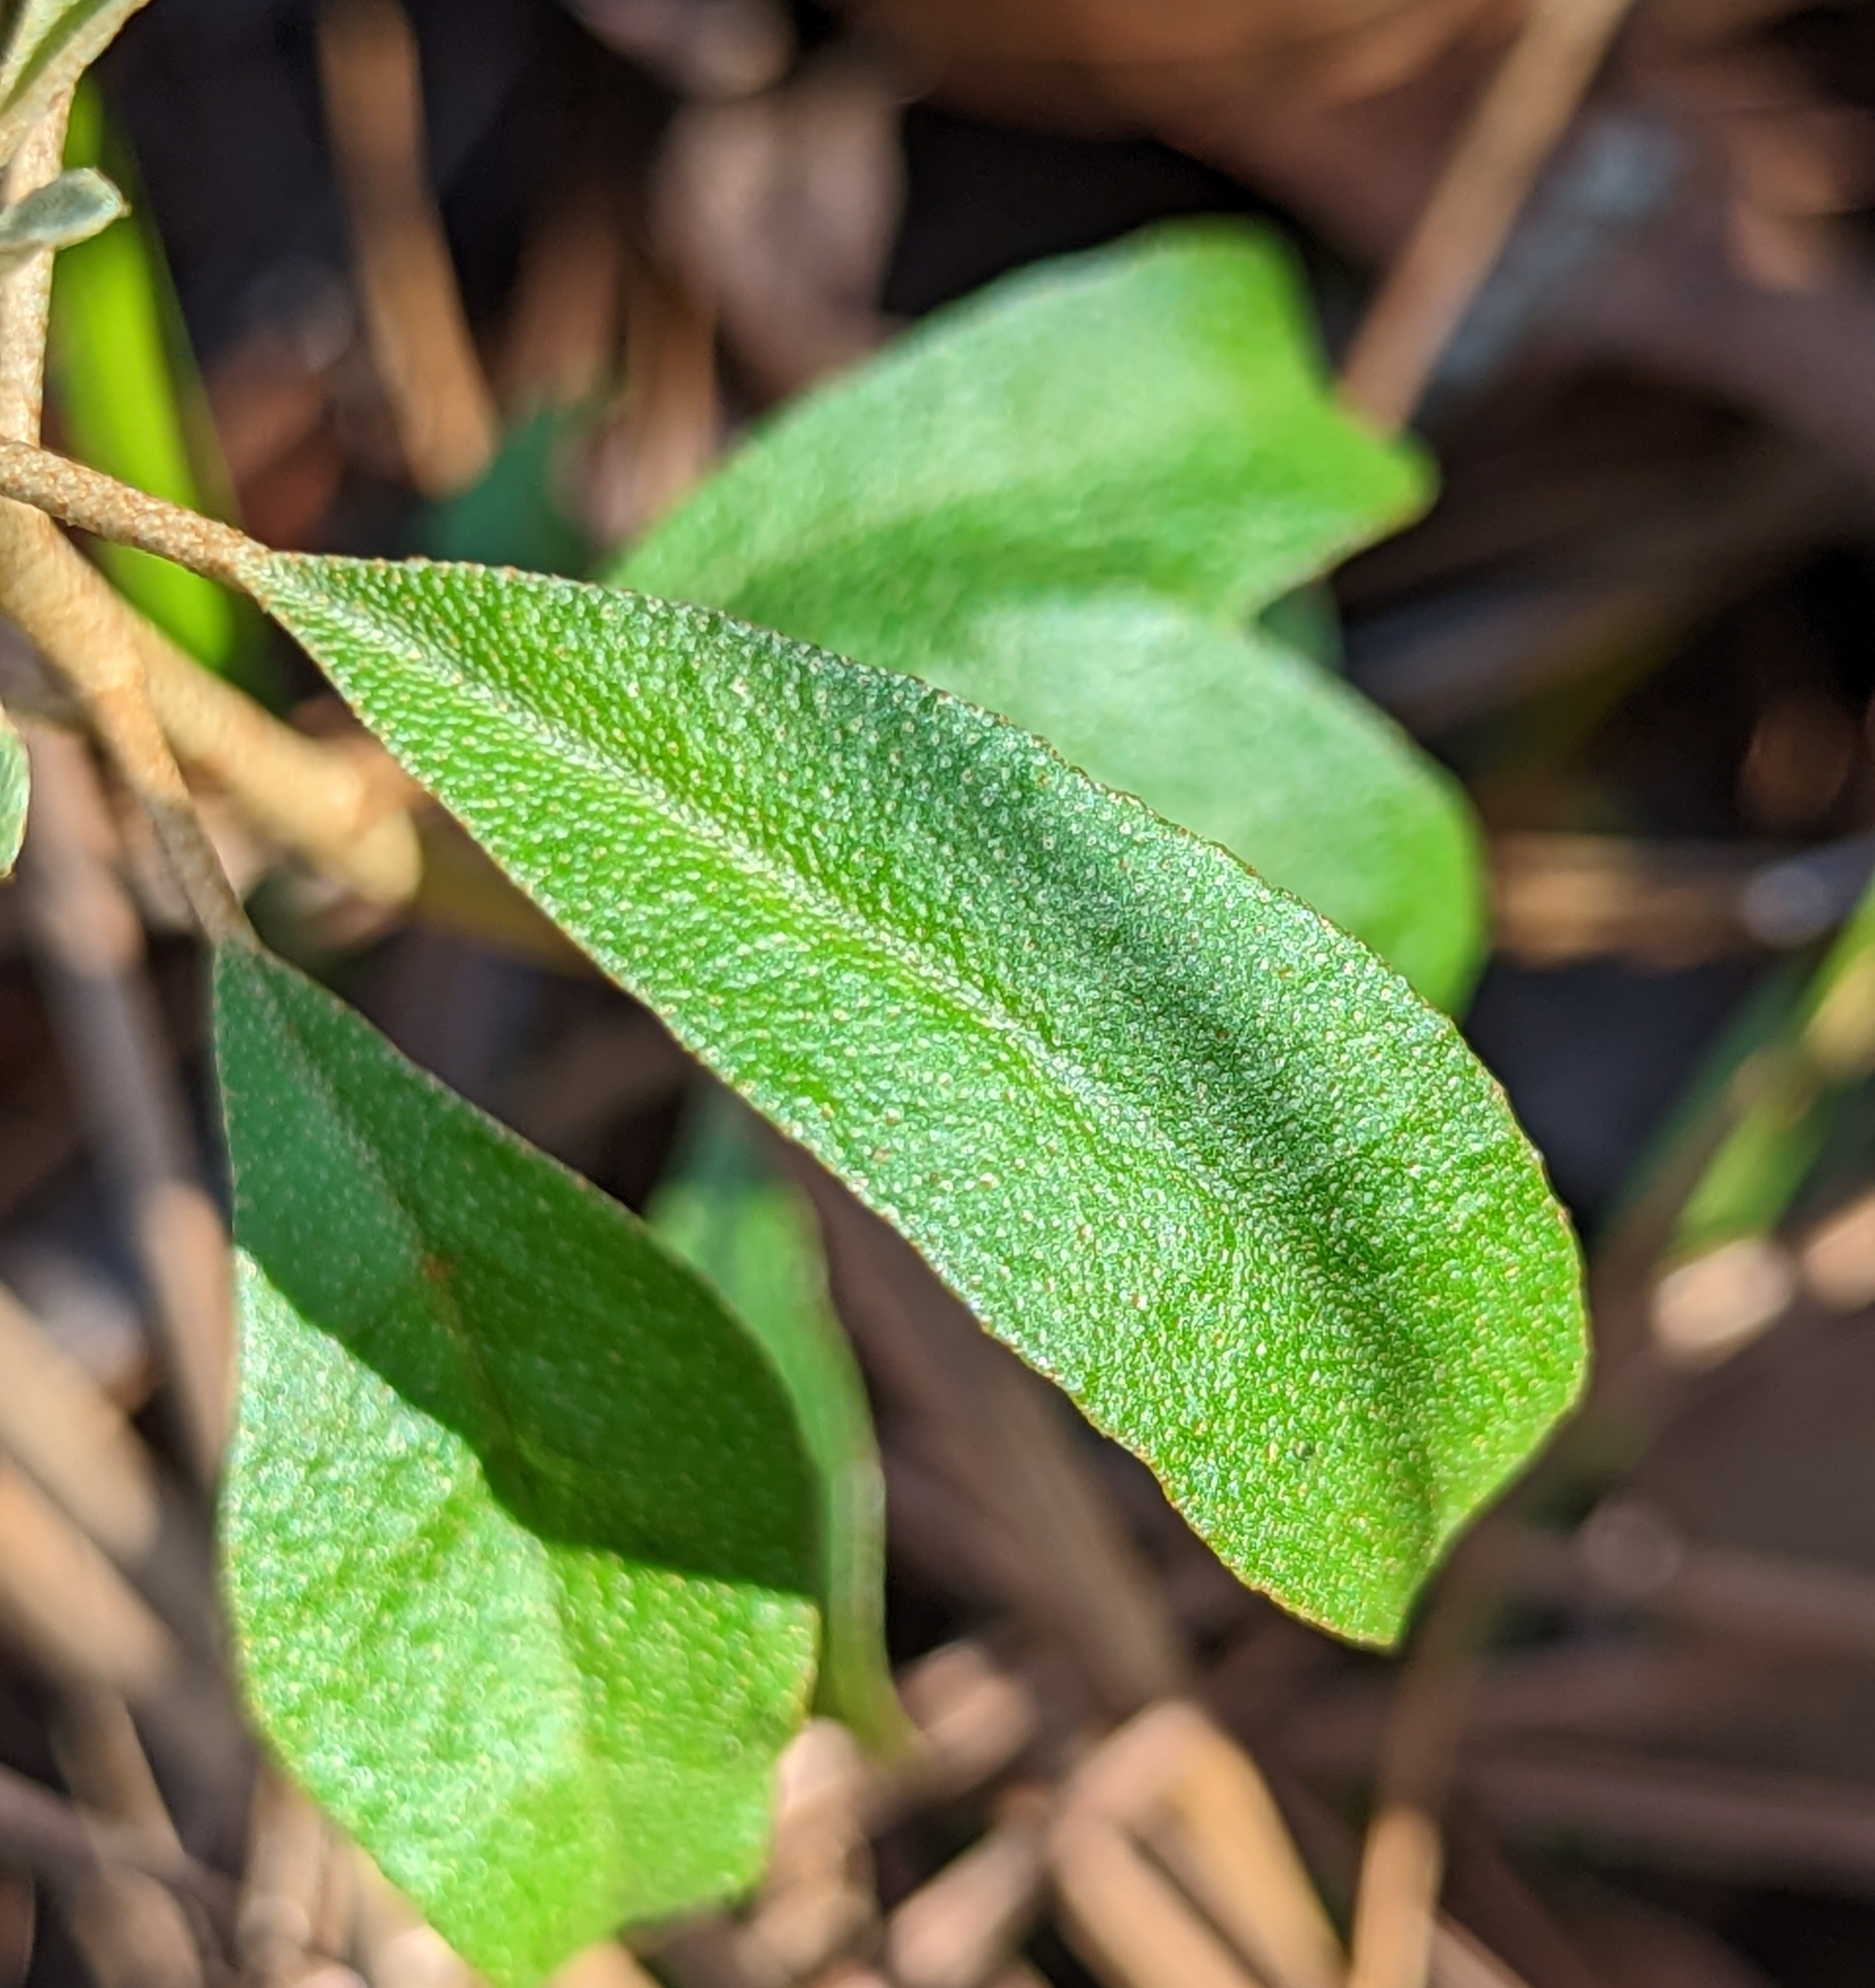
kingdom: Plantae
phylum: Tracheophyta
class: Magnoliopsida
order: Malpighiales
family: Euphorbiaceae
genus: Croton
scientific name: Croton argyranthemus
